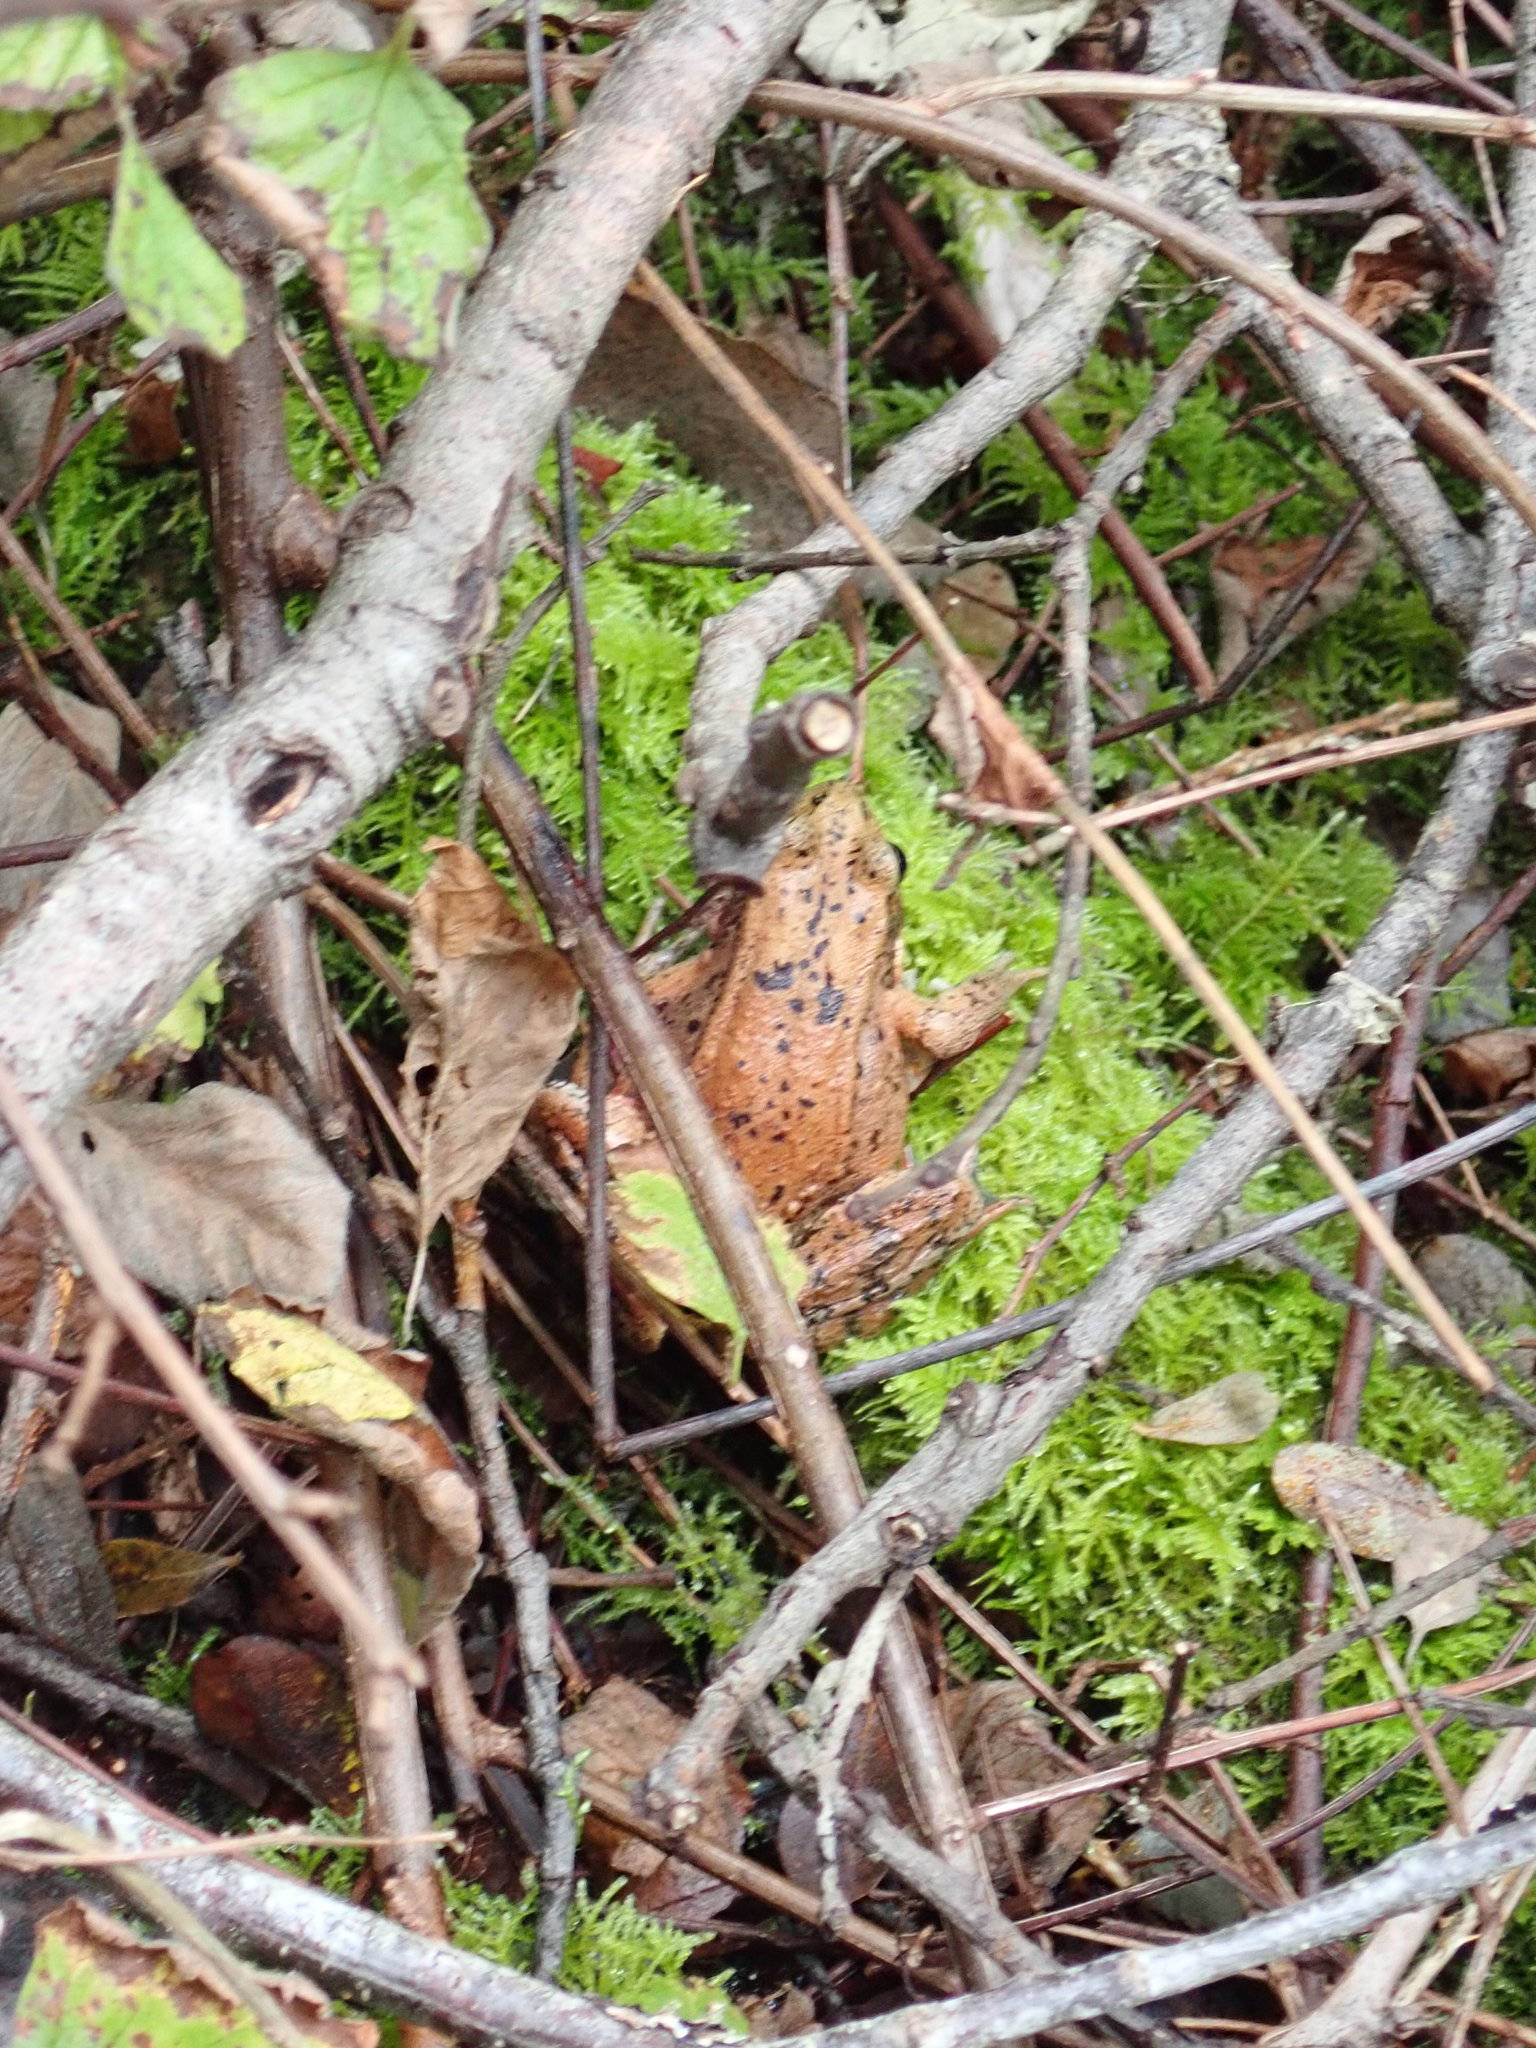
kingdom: Animalia
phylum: Chordata
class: Amphibia
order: Anura
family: Ranidae
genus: Rana
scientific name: Rana aurora
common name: Red-legged frog
